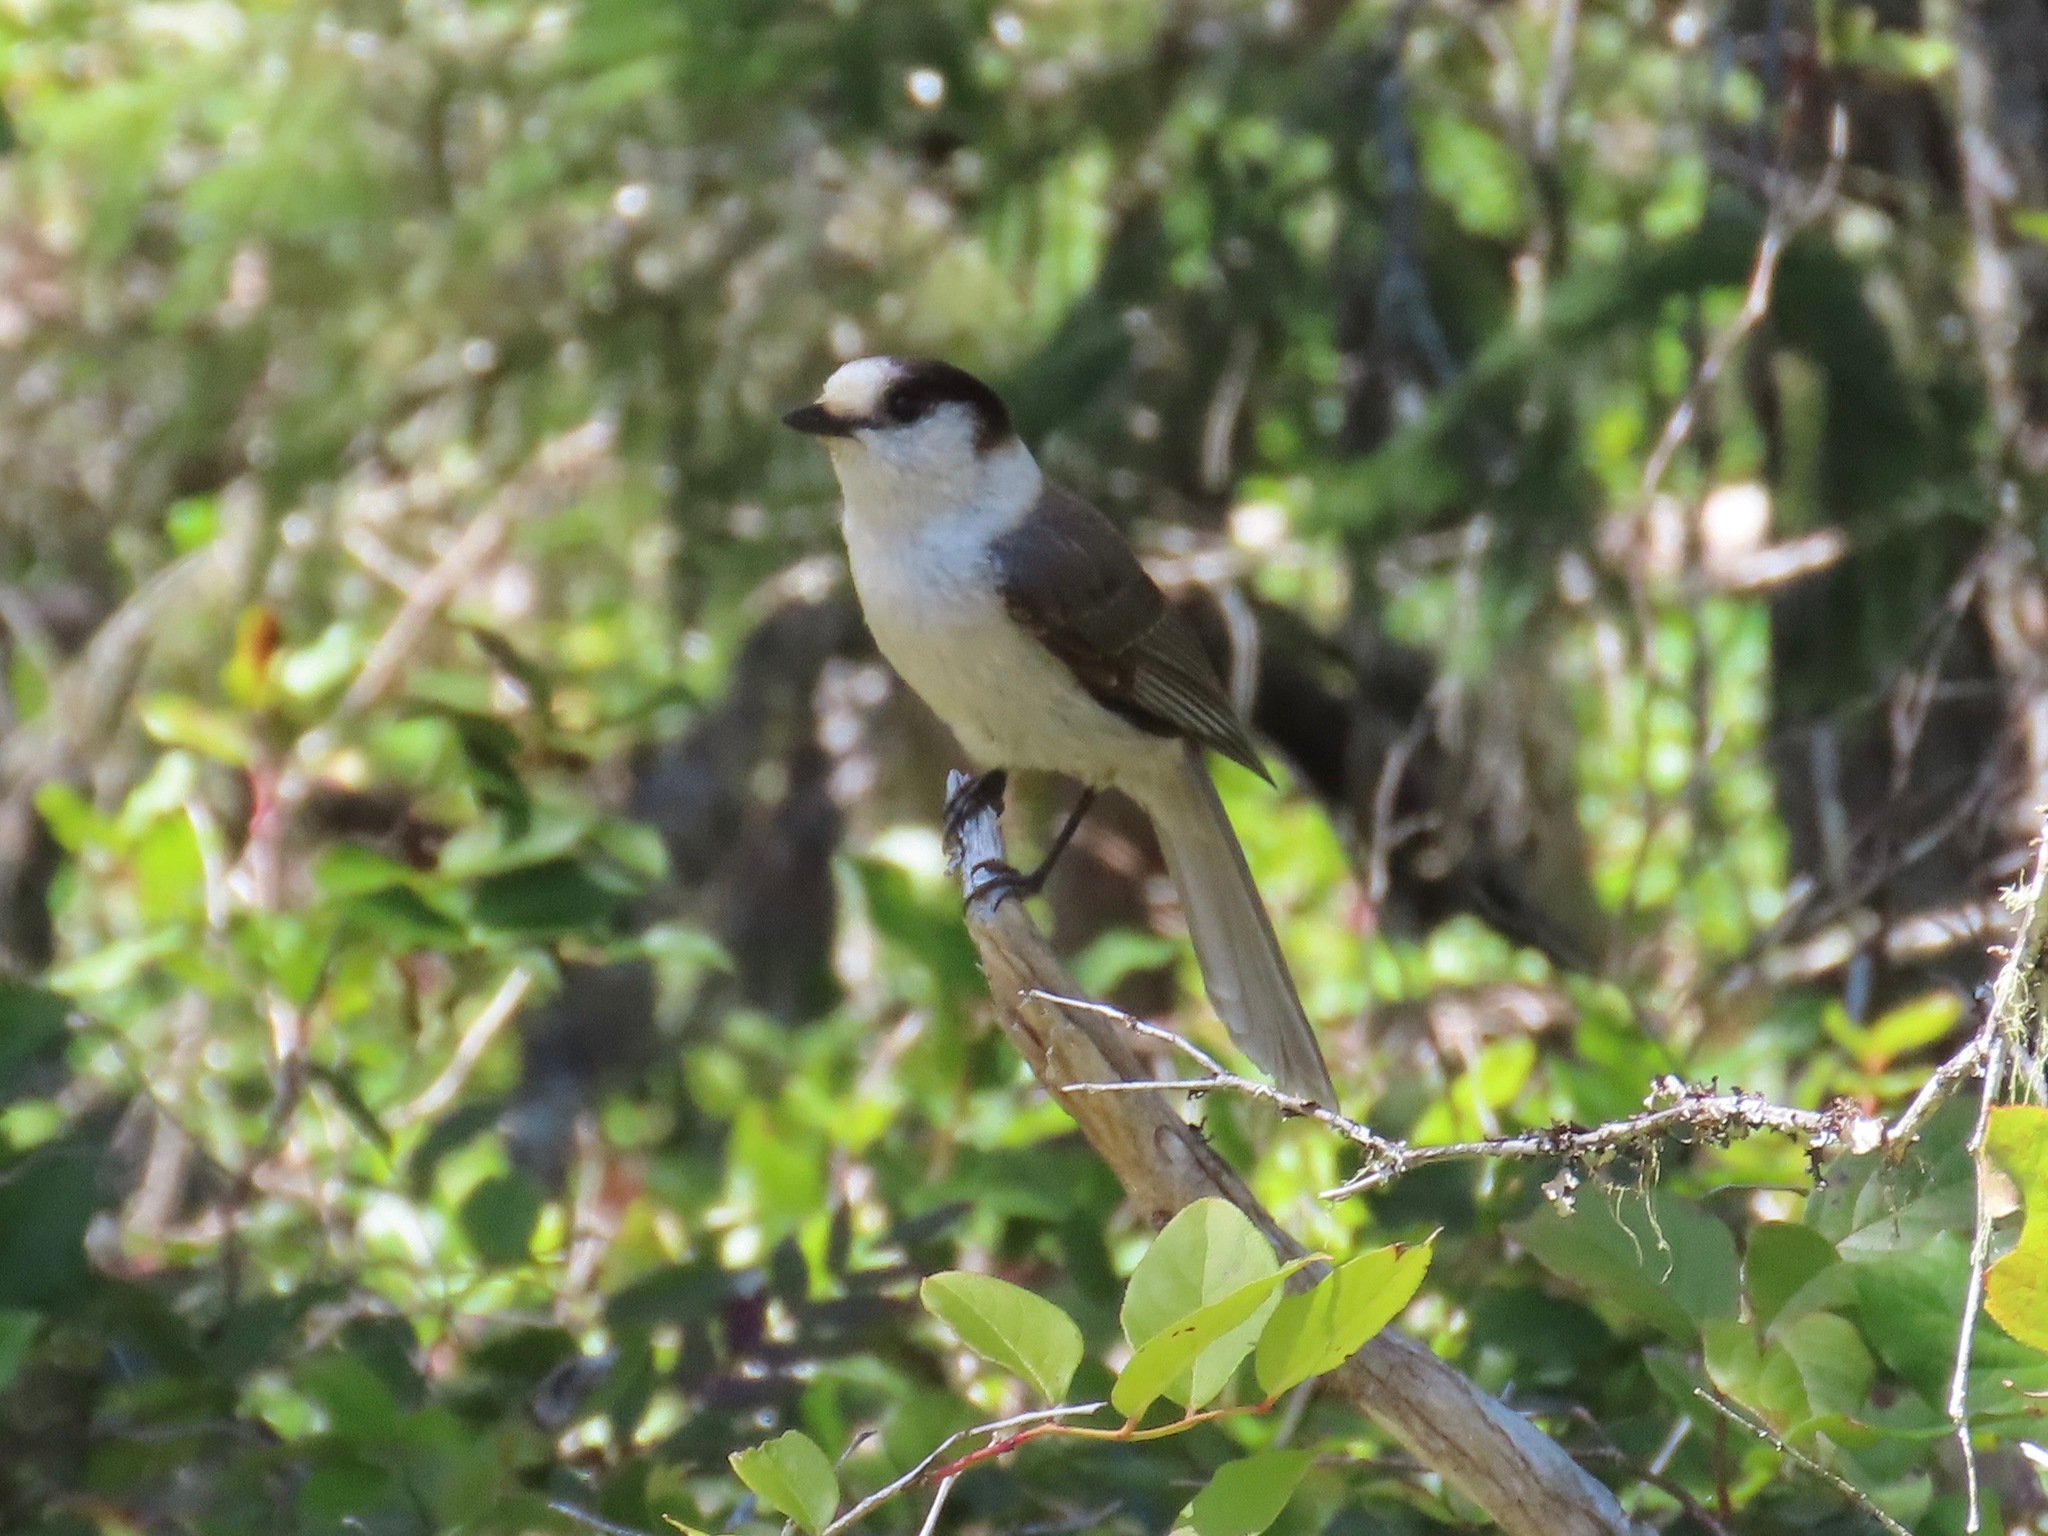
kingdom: Animalia
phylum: Chordata
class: Aves
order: Passeriformes
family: Corvidae
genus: Perisoreus
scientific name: Perisoreus canadensis
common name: Gray jay
